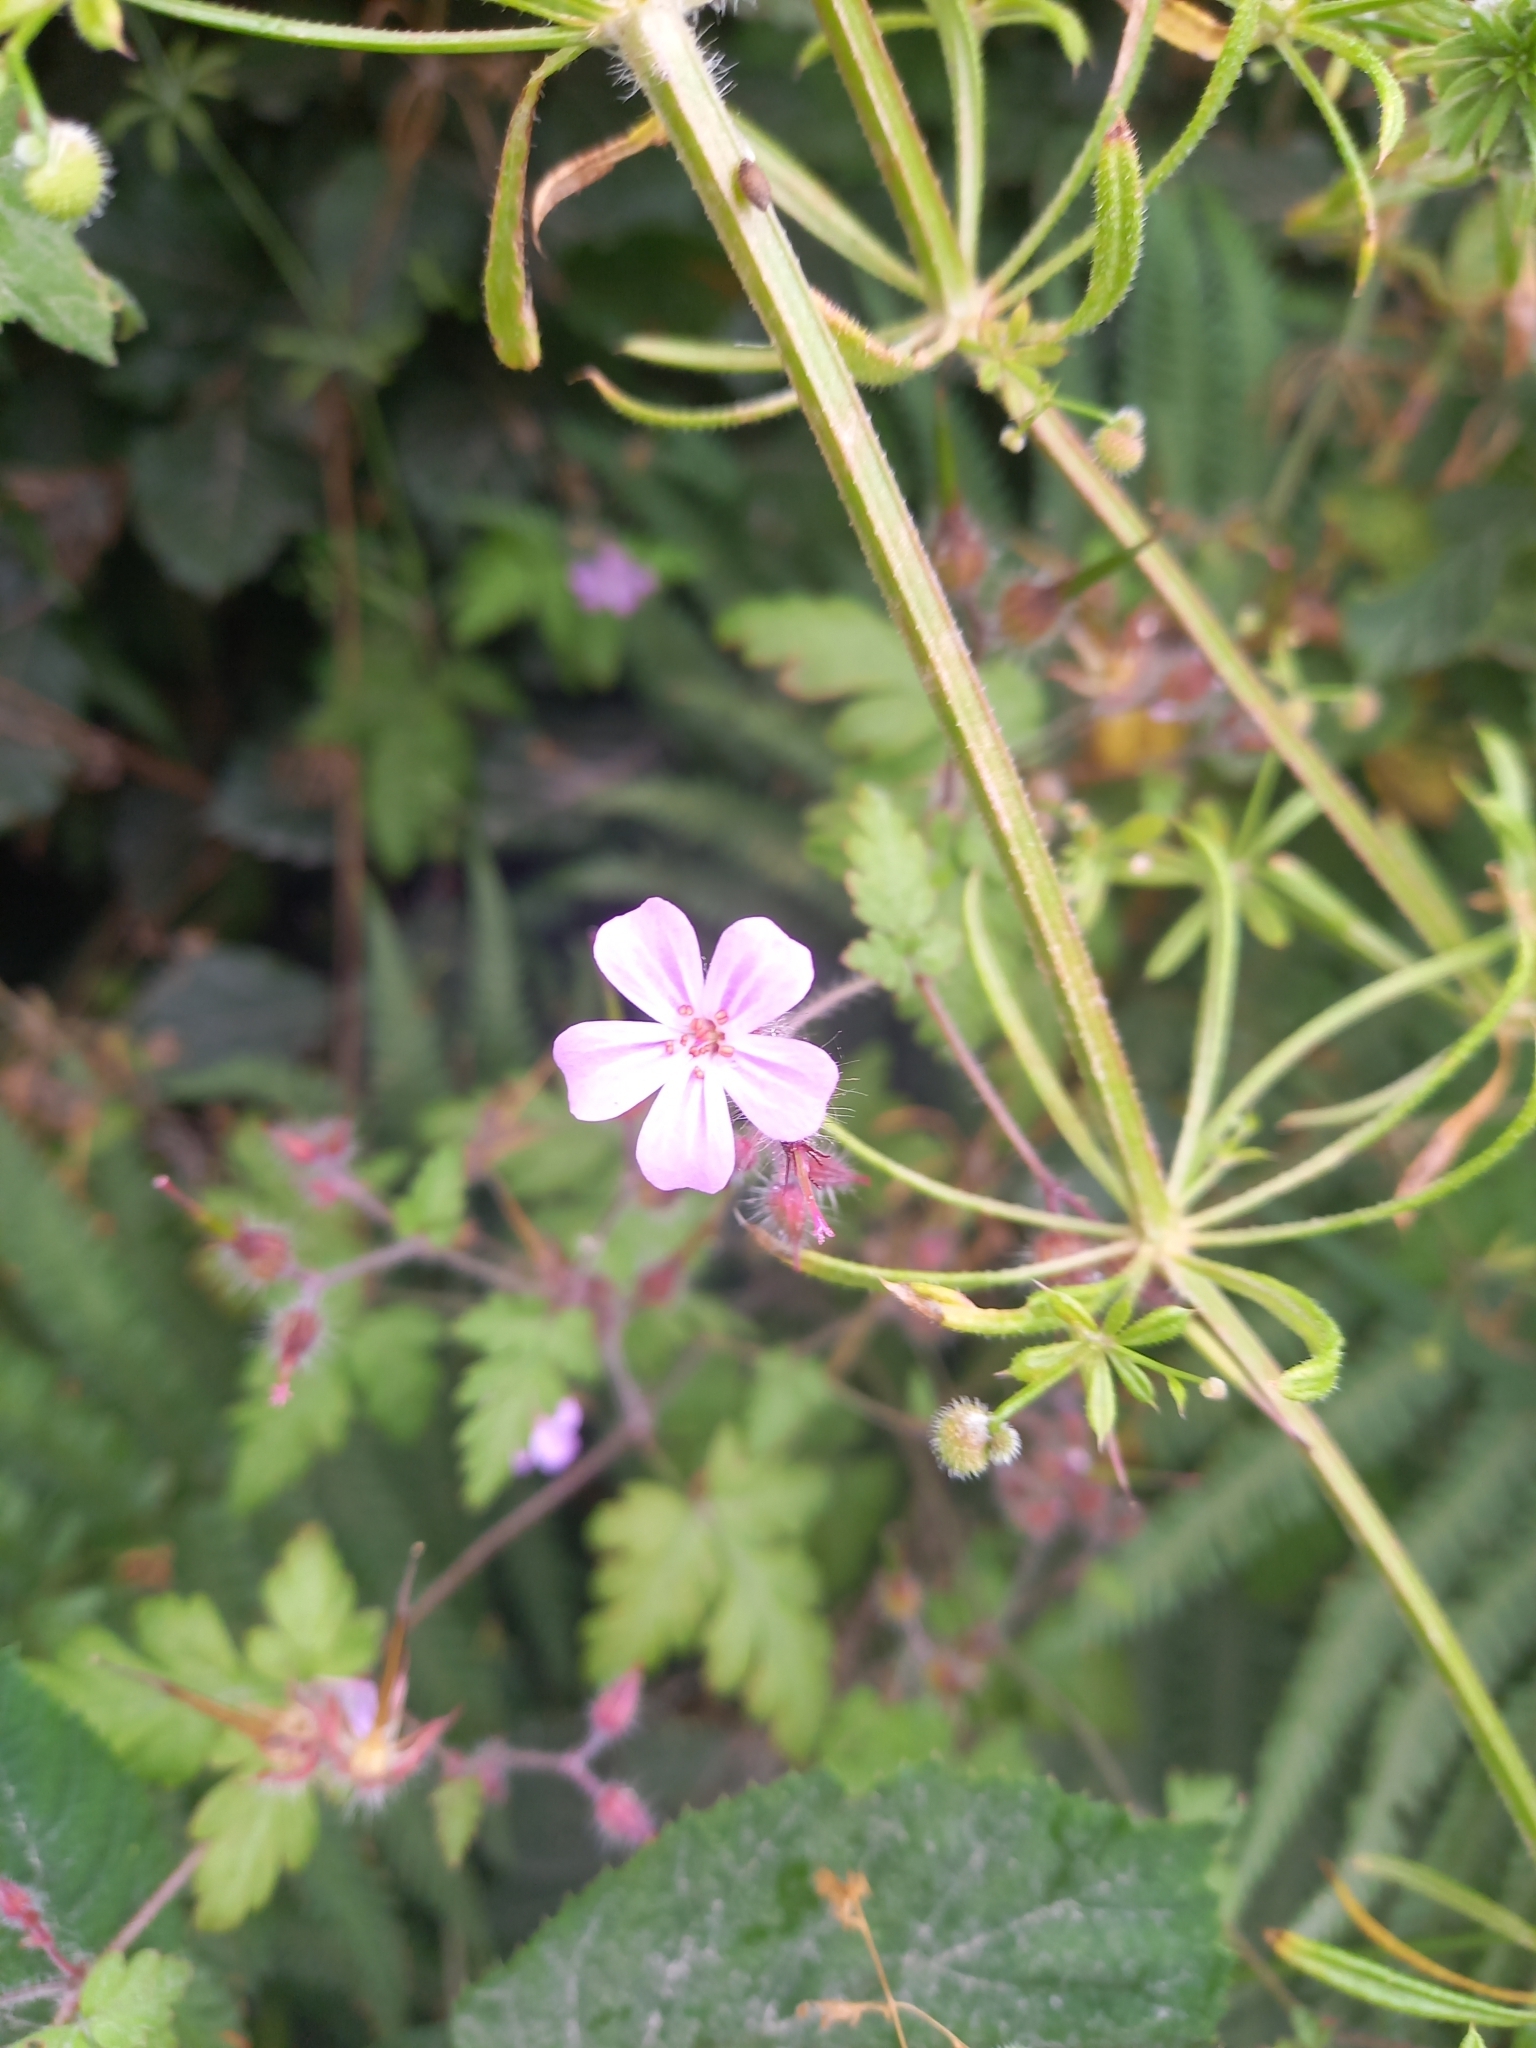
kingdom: Plantae
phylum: Tracheophyta
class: Magnoliopsida
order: Geraniales
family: Geraniaceae
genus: Geranium
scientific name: Geranium robertianum
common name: Herb-robert
